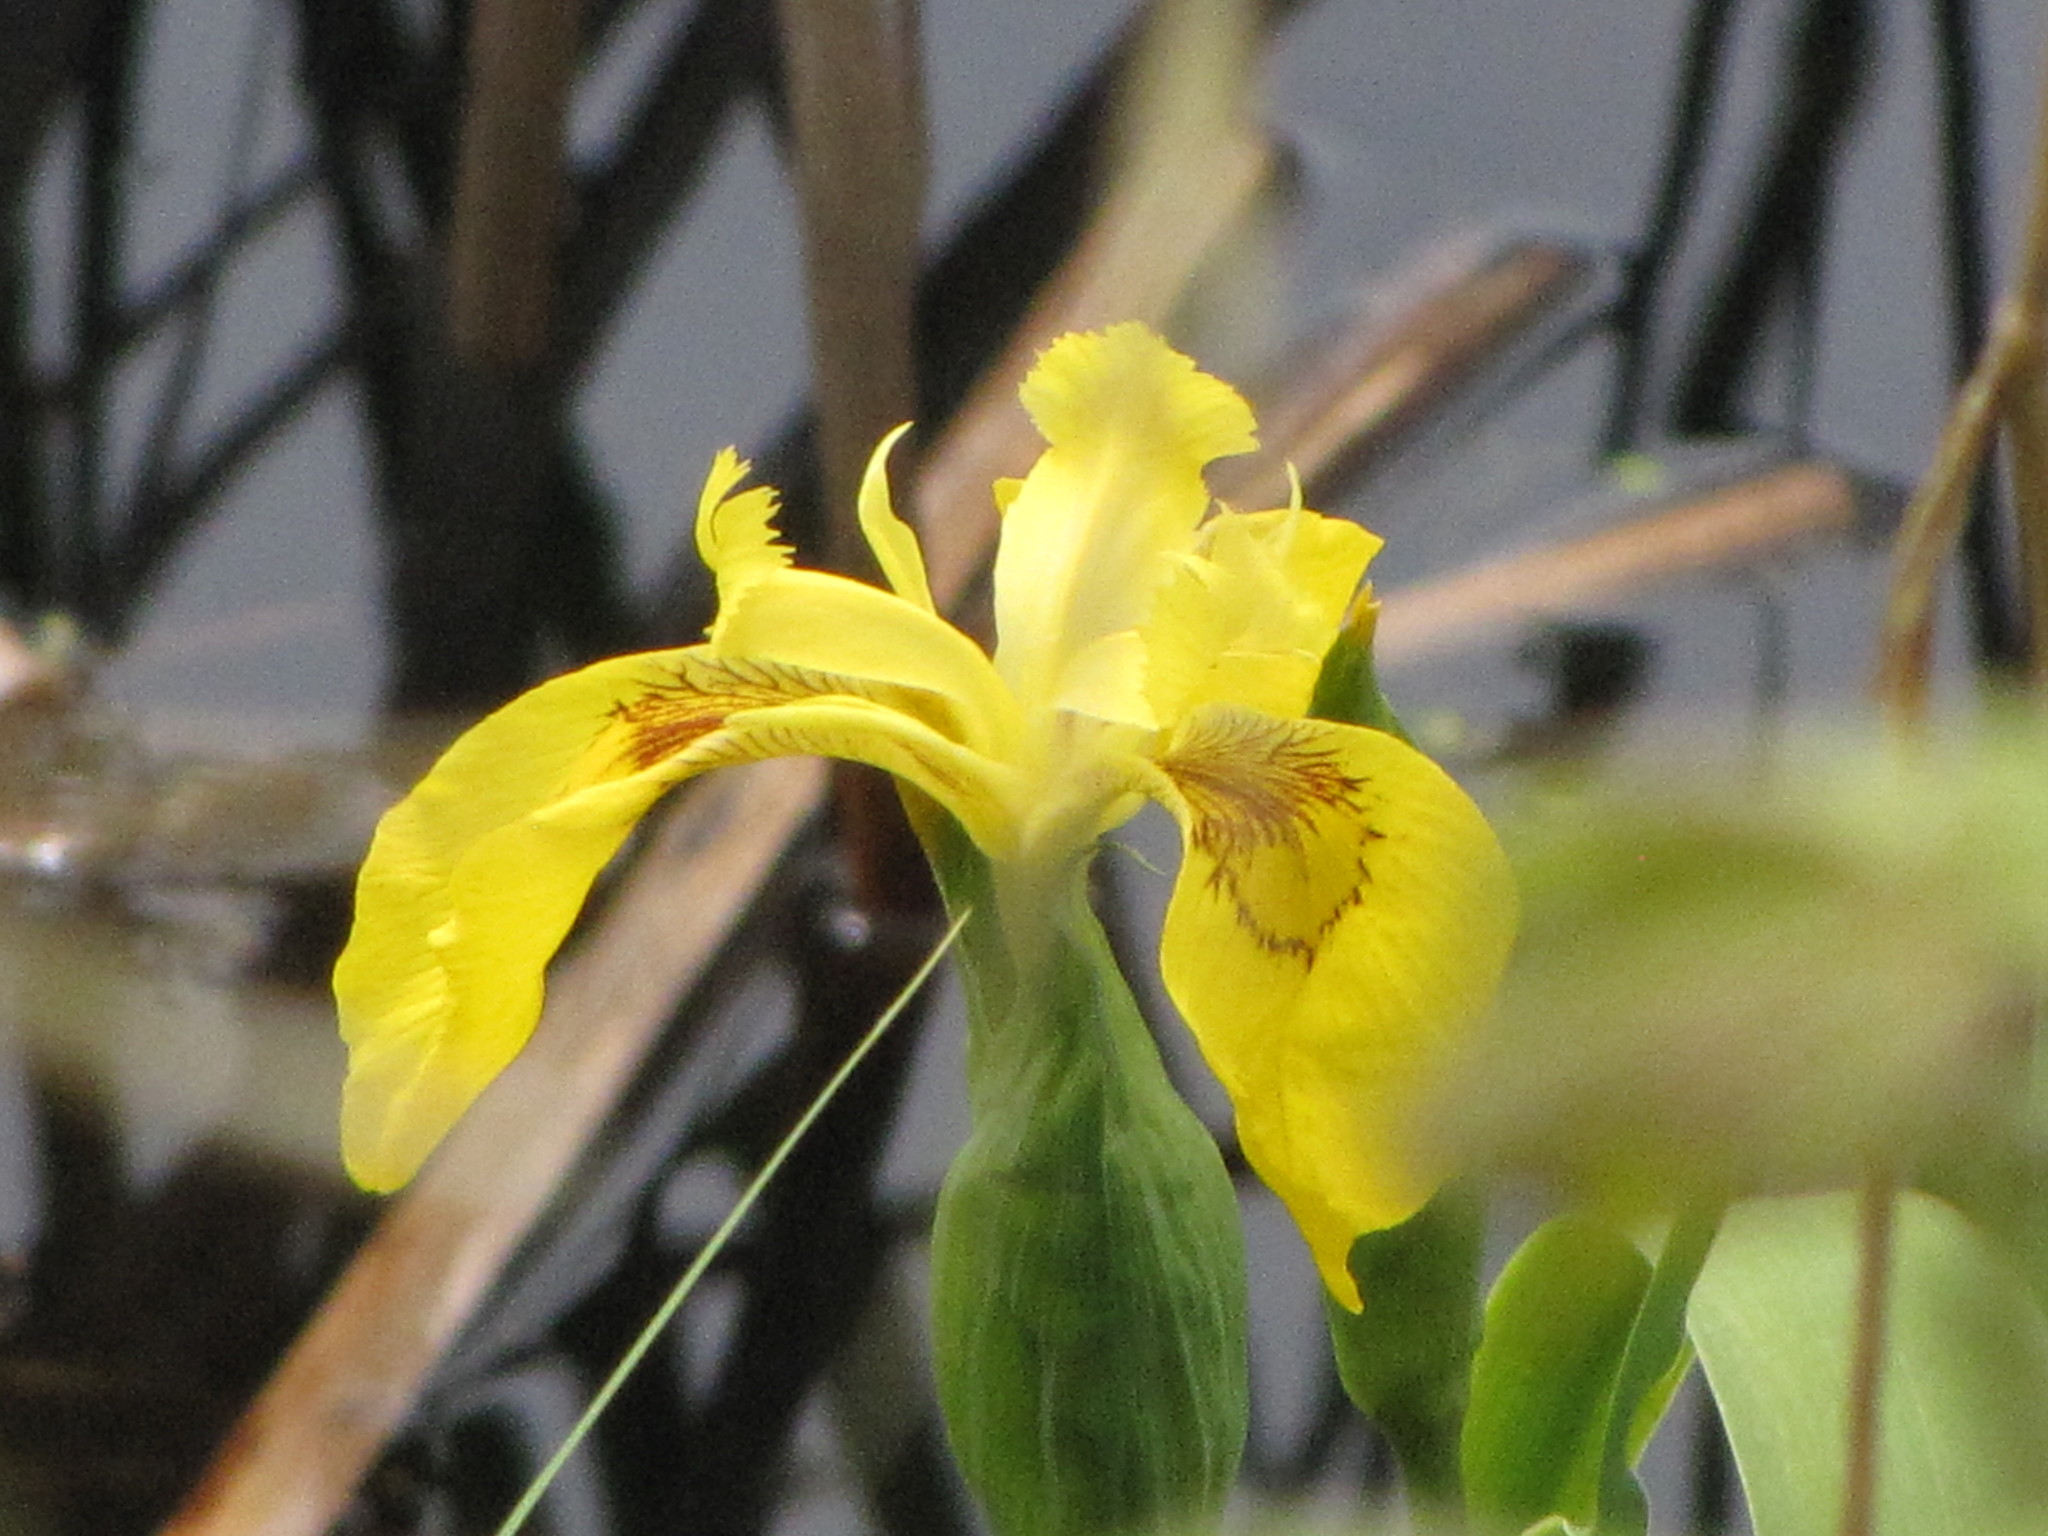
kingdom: Plantae
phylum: Tracheophyta
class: Liliopsida
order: Asparagales
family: Iridaceae
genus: Iris
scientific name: Iris pseudacorus
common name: Yellow flag
